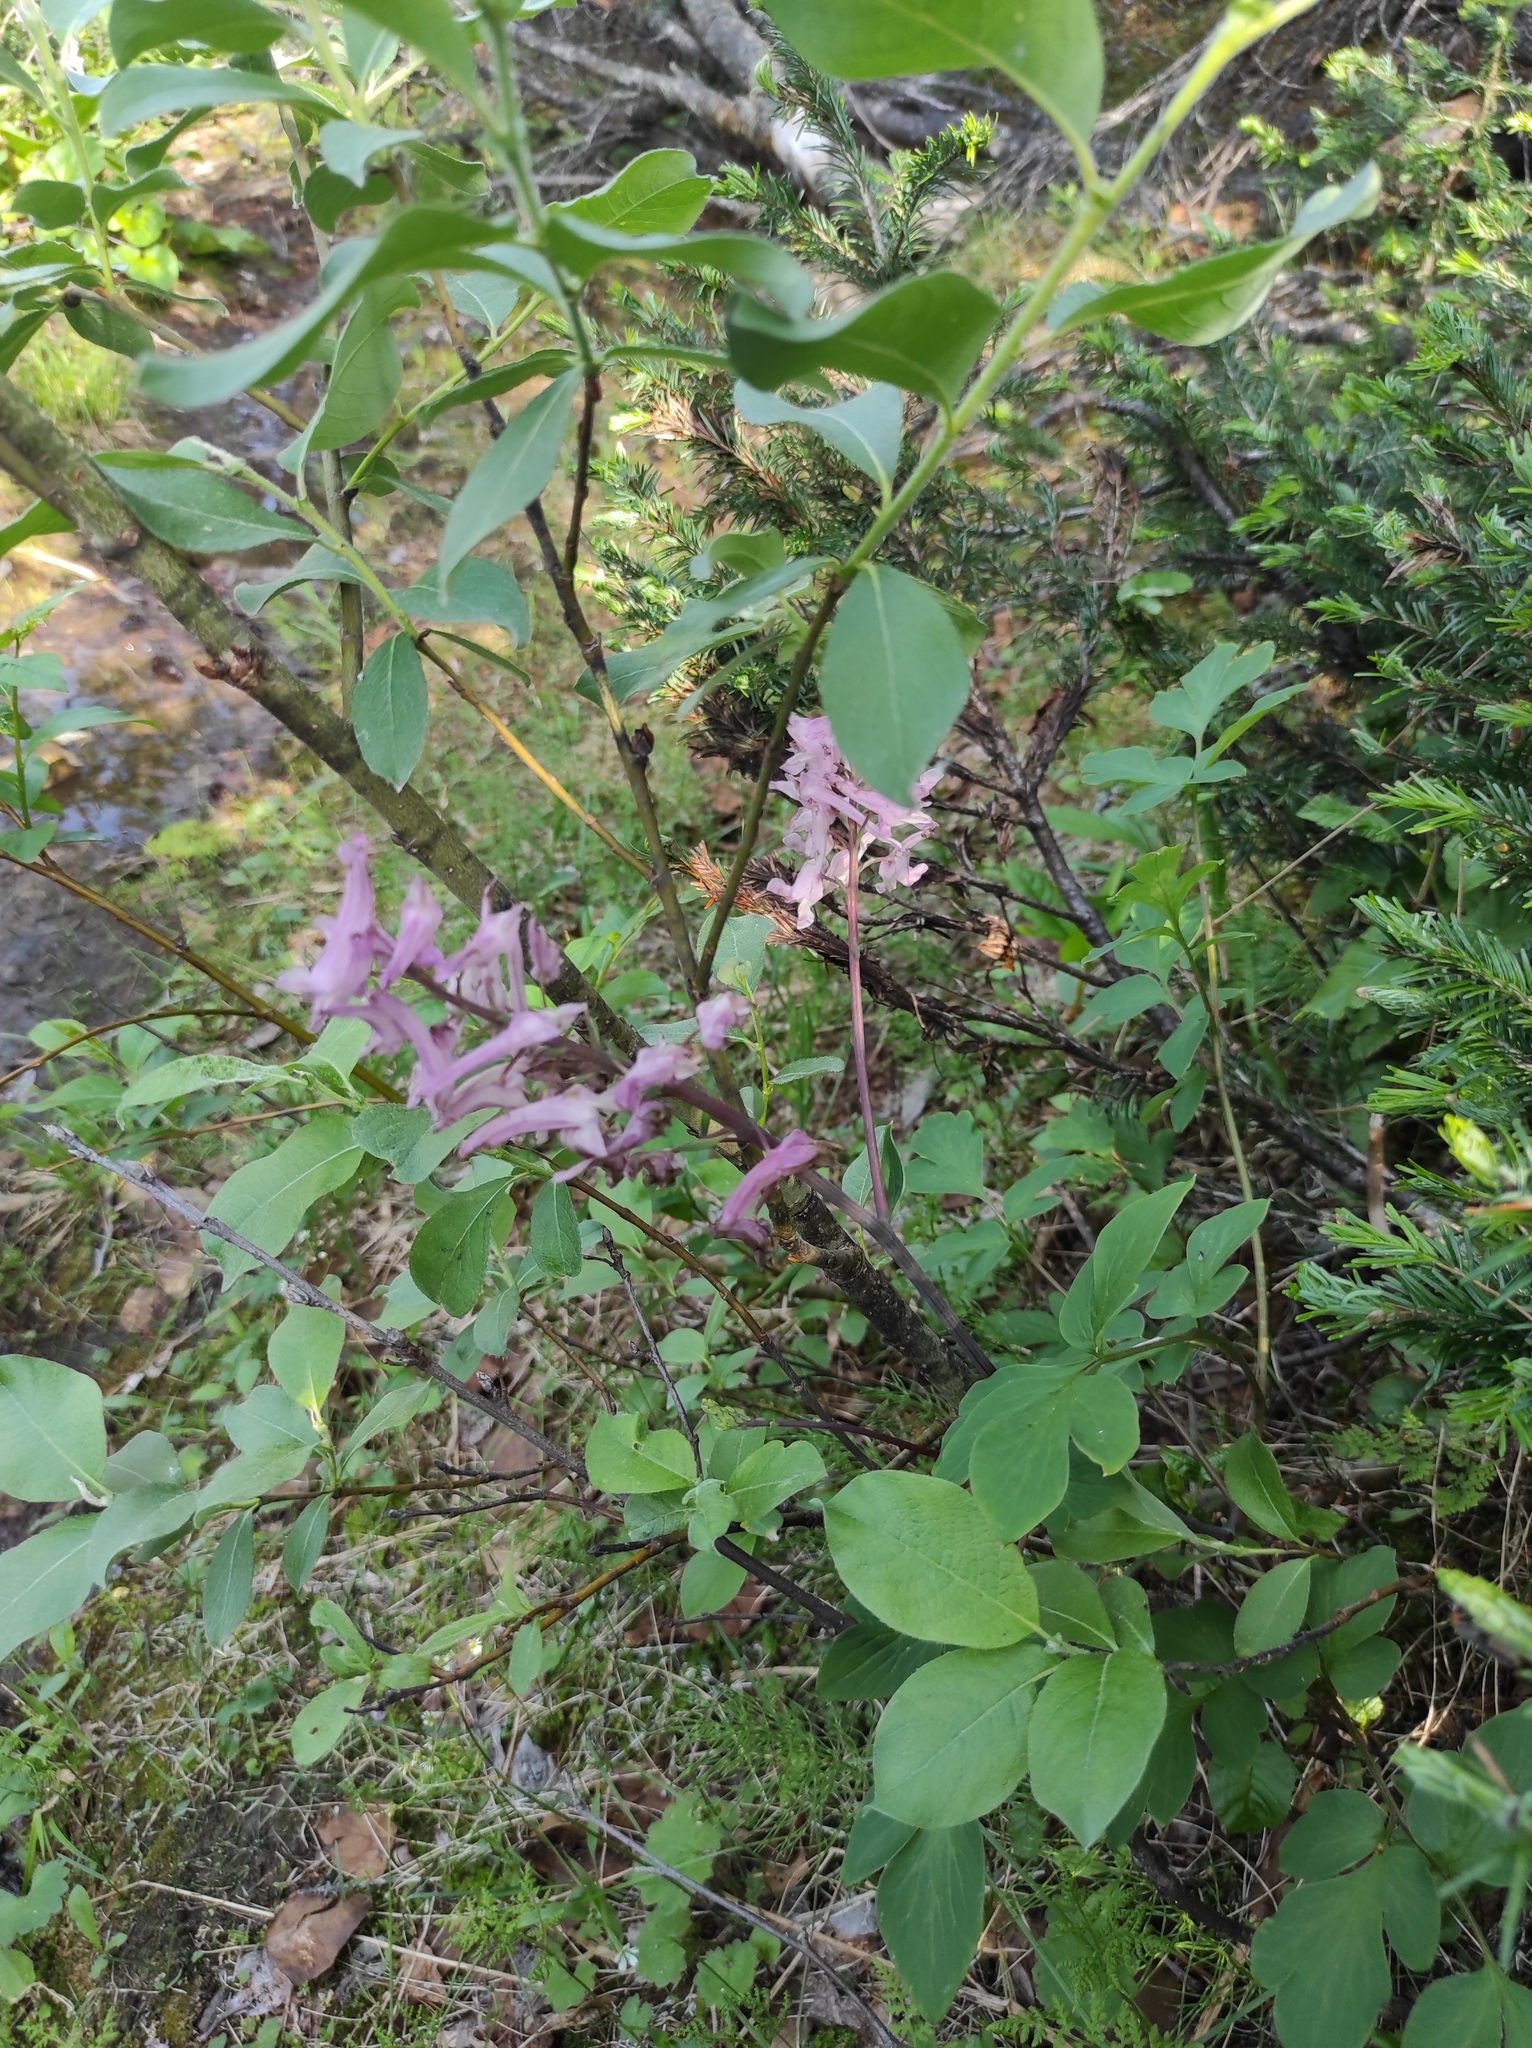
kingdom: Plantae
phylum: Tracheophyta
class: Magnoliopsida
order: Malpighiales
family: Salicaceae
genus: Salix
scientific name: Salix caprea
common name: Goat willow
